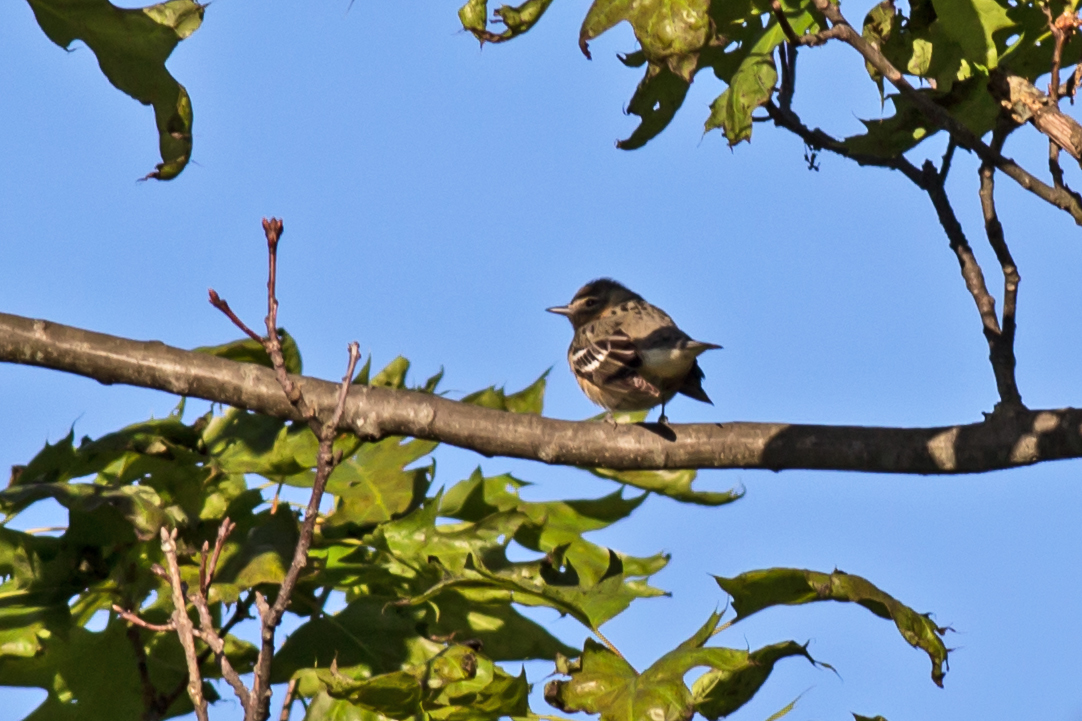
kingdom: Animalia
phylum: Chordata
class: Aves
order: Passeriformes
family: Parulidae
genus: Setophaga
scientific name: Setophaga castanea
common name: Bay-breasted warbler
